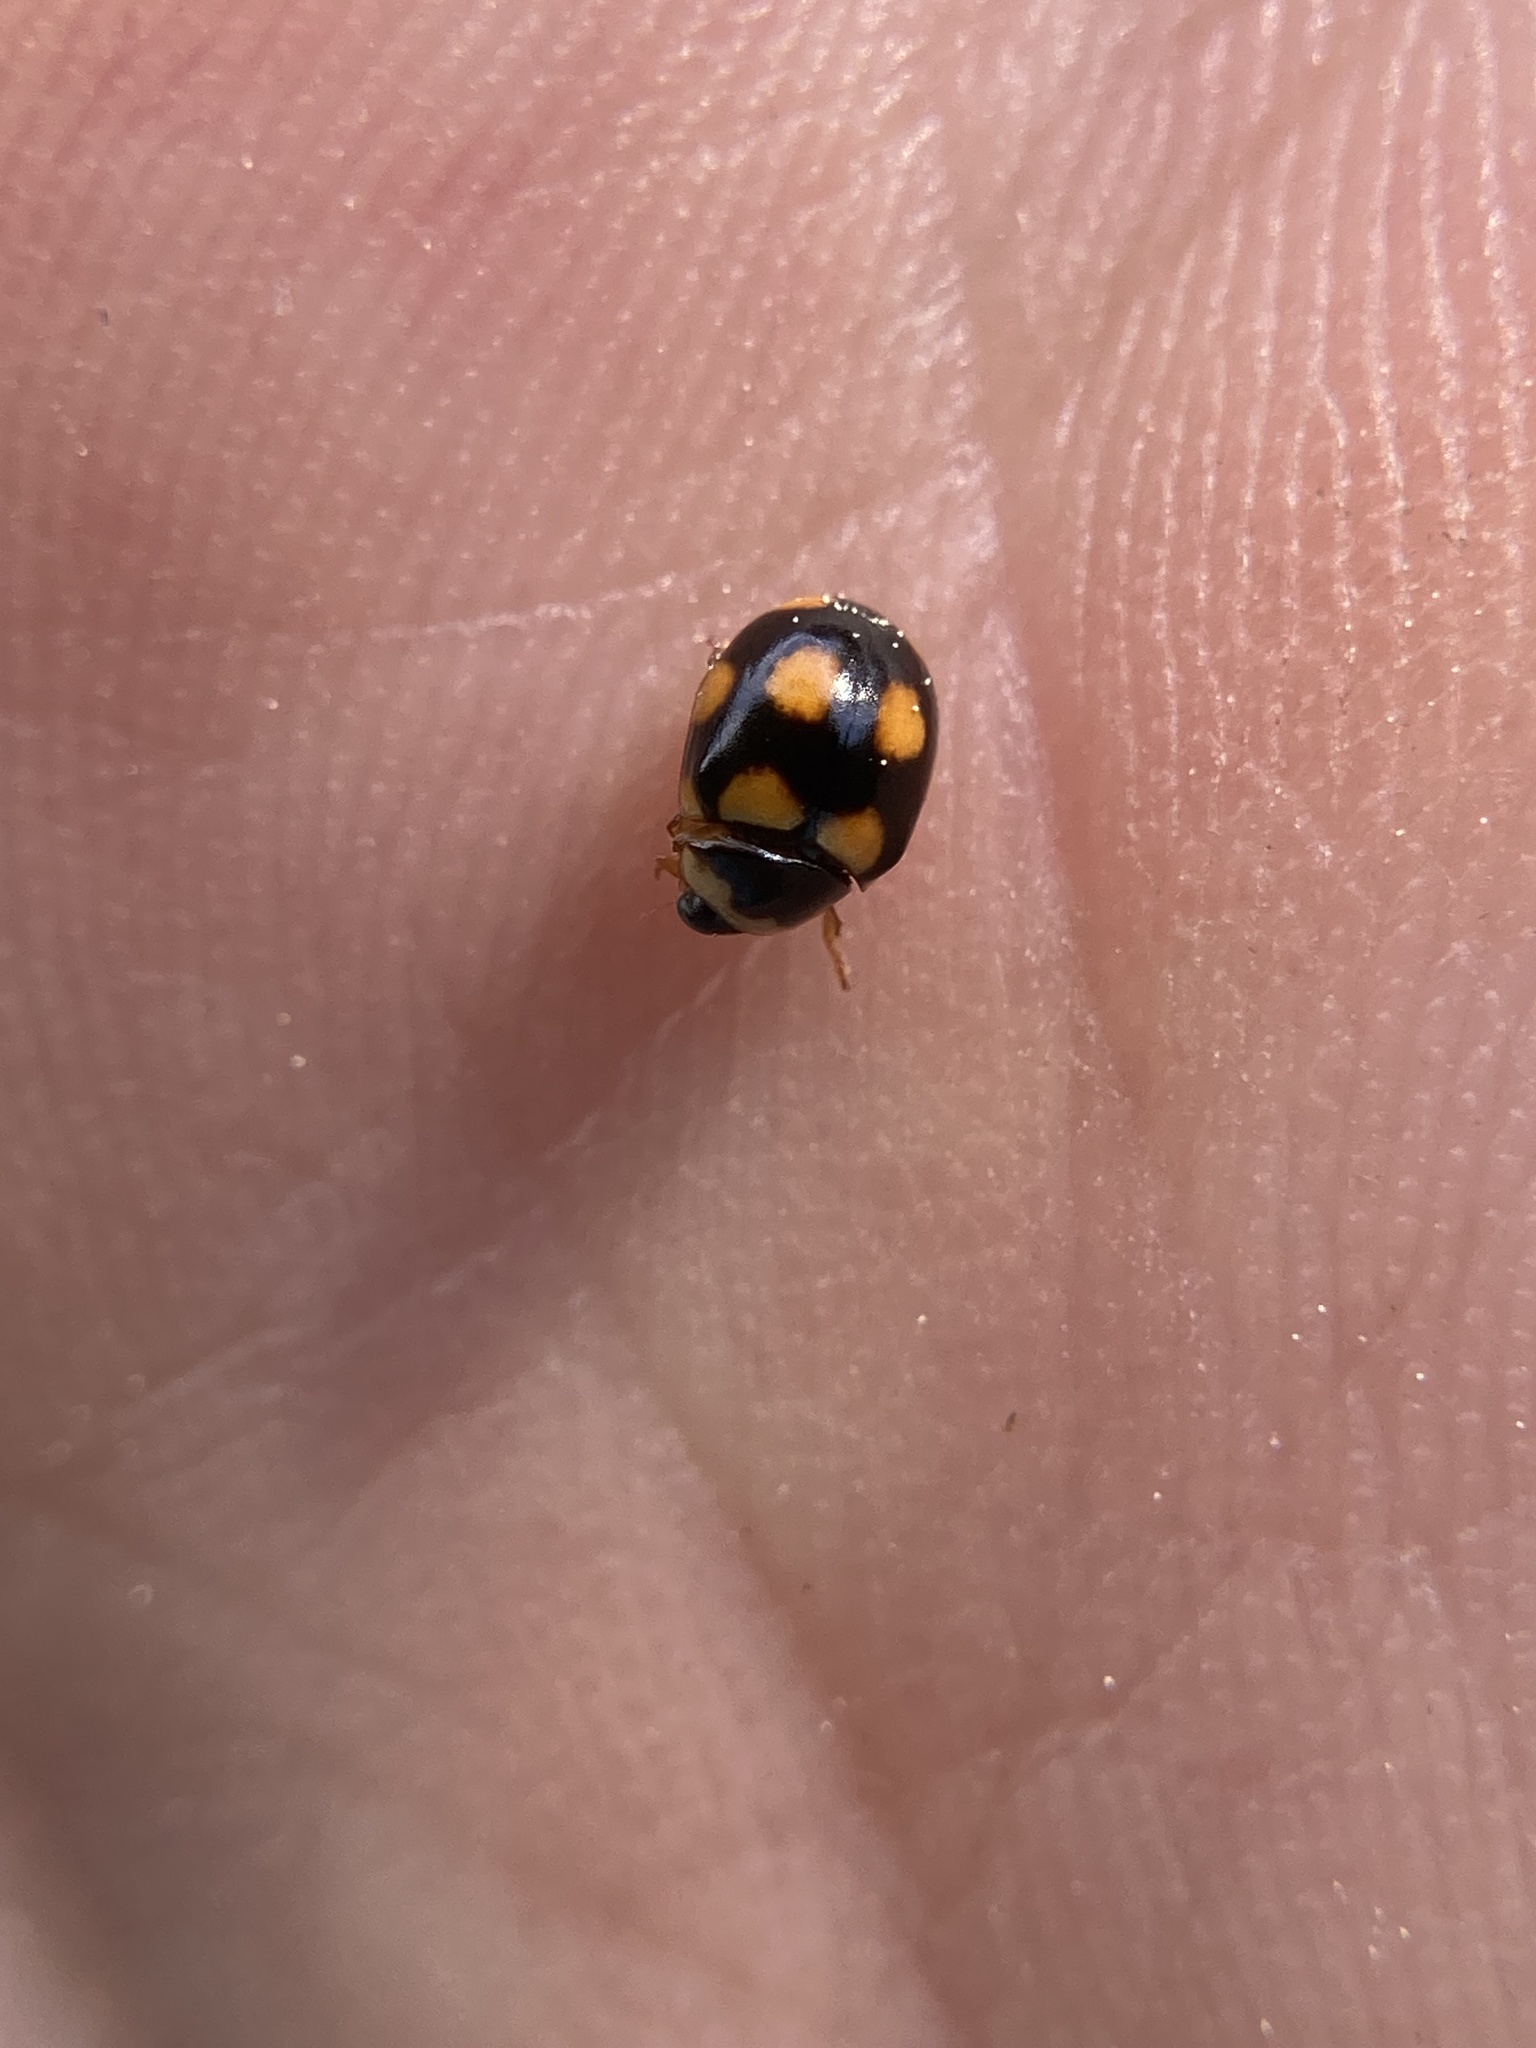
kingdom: Animalia
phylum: Arthropoda
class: Insecta
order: Coleoptera
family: Coccinellidae
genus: Brachiacantha
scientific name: Brachiacantha ursina
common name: Ursine spurleg lady beetle
